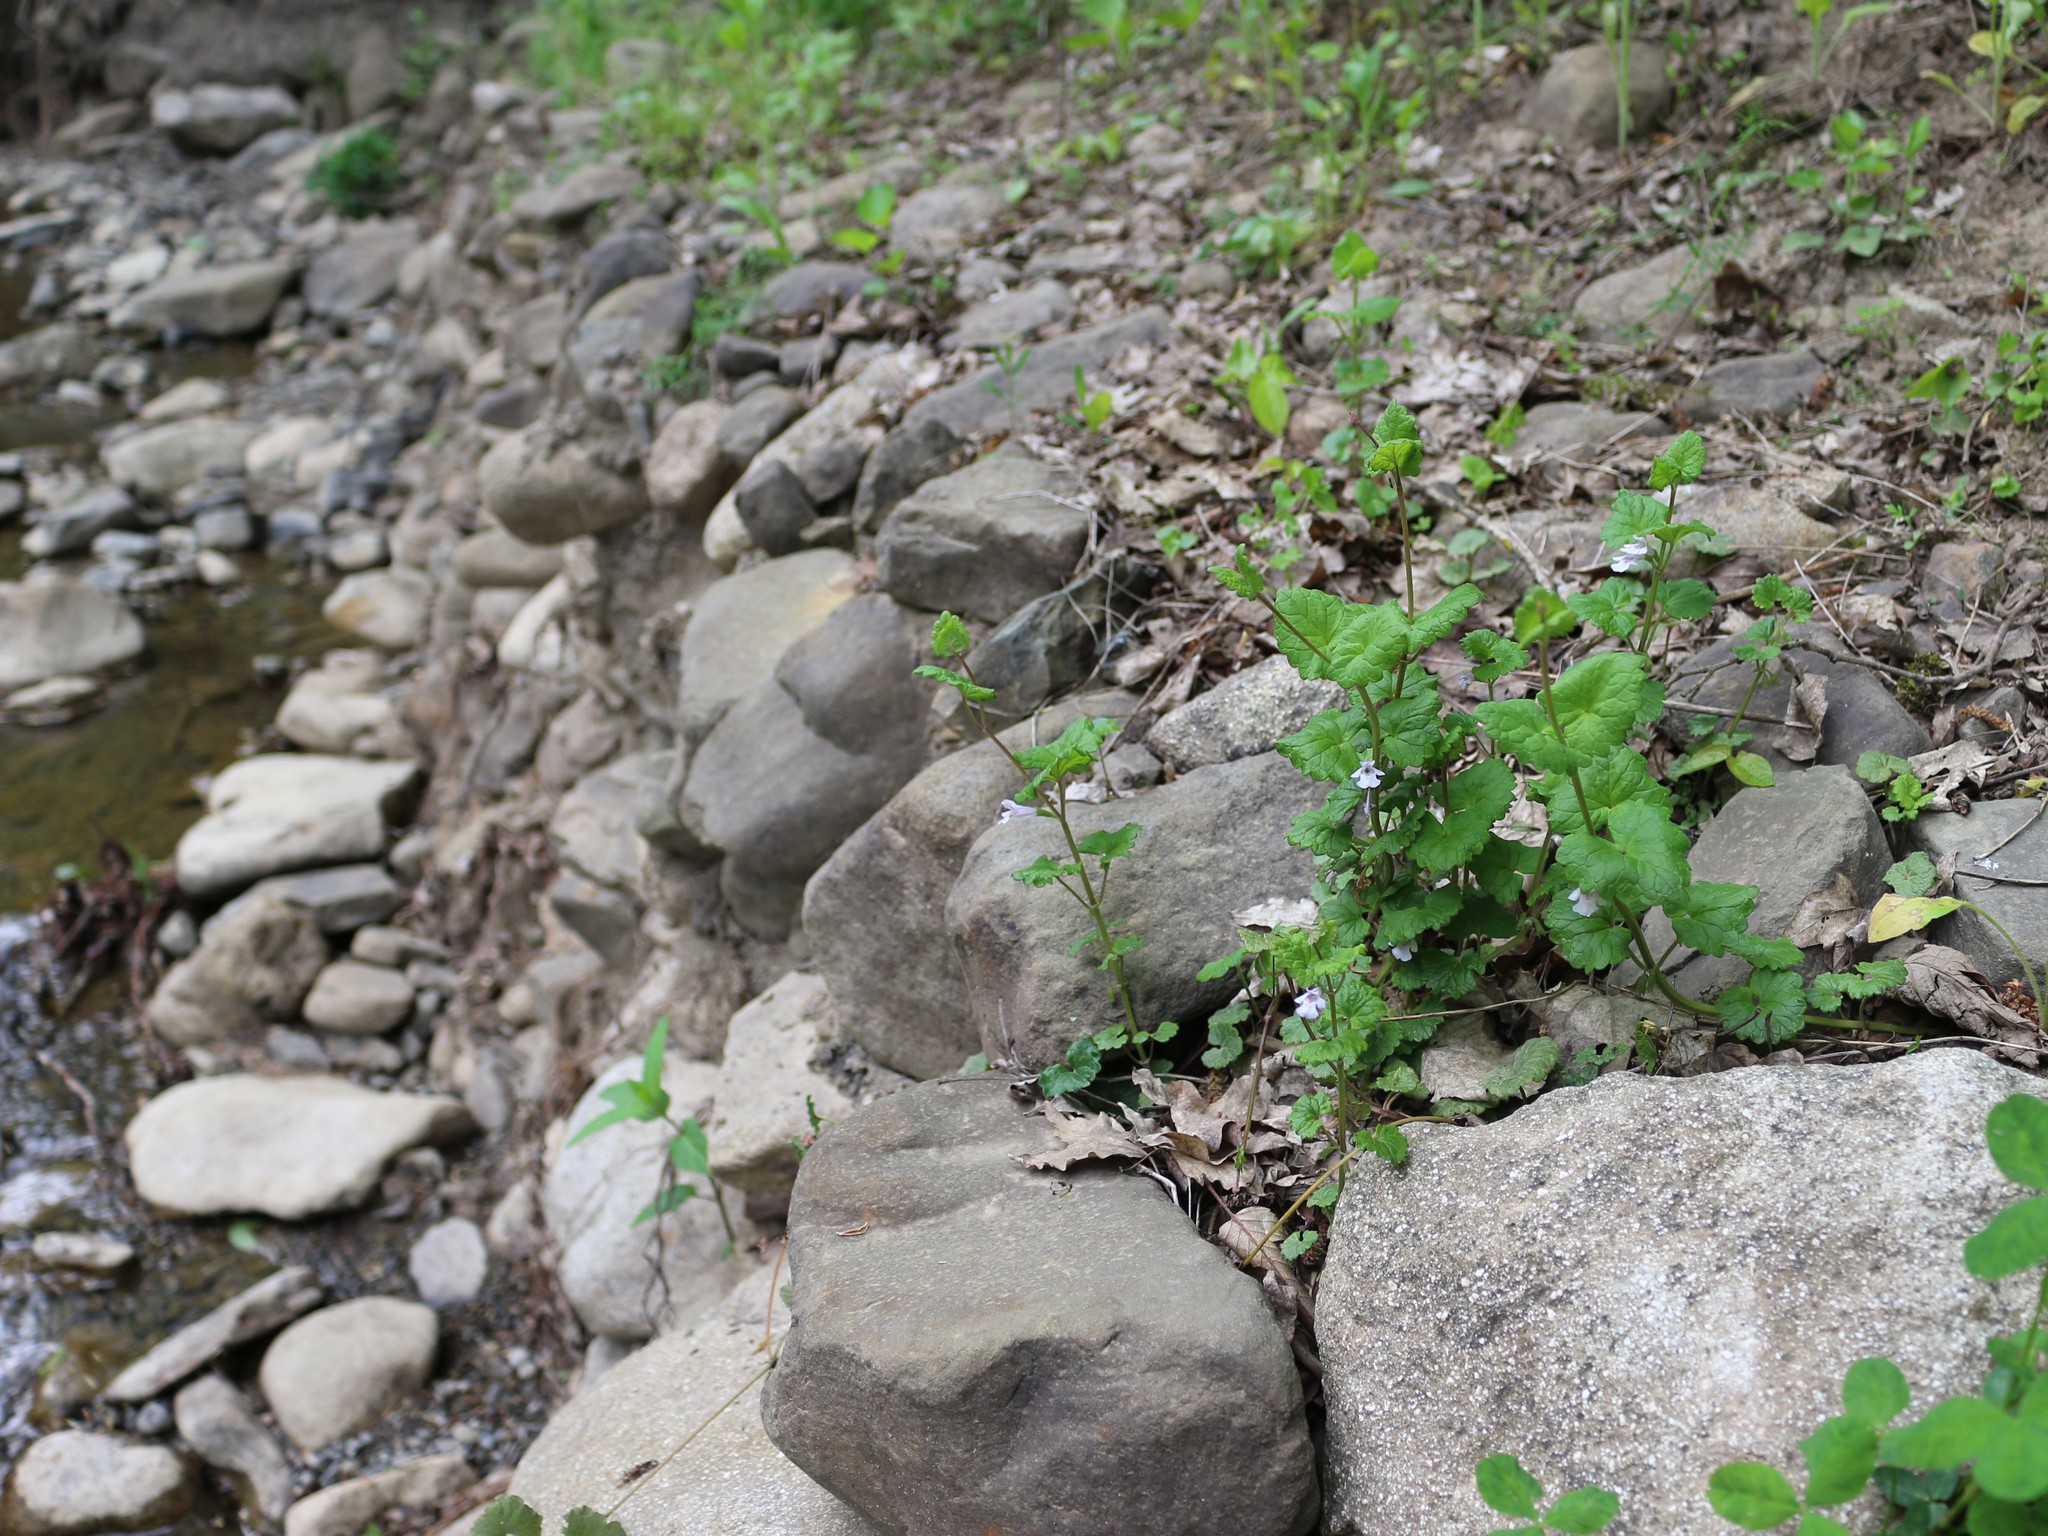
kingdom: Plantae
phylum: Tracheophyta
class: Magnoliopsida
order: Lamiales
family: Lamiaceae
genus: Glechoma
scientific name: Glechoma hederacea
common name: Ground ivy
